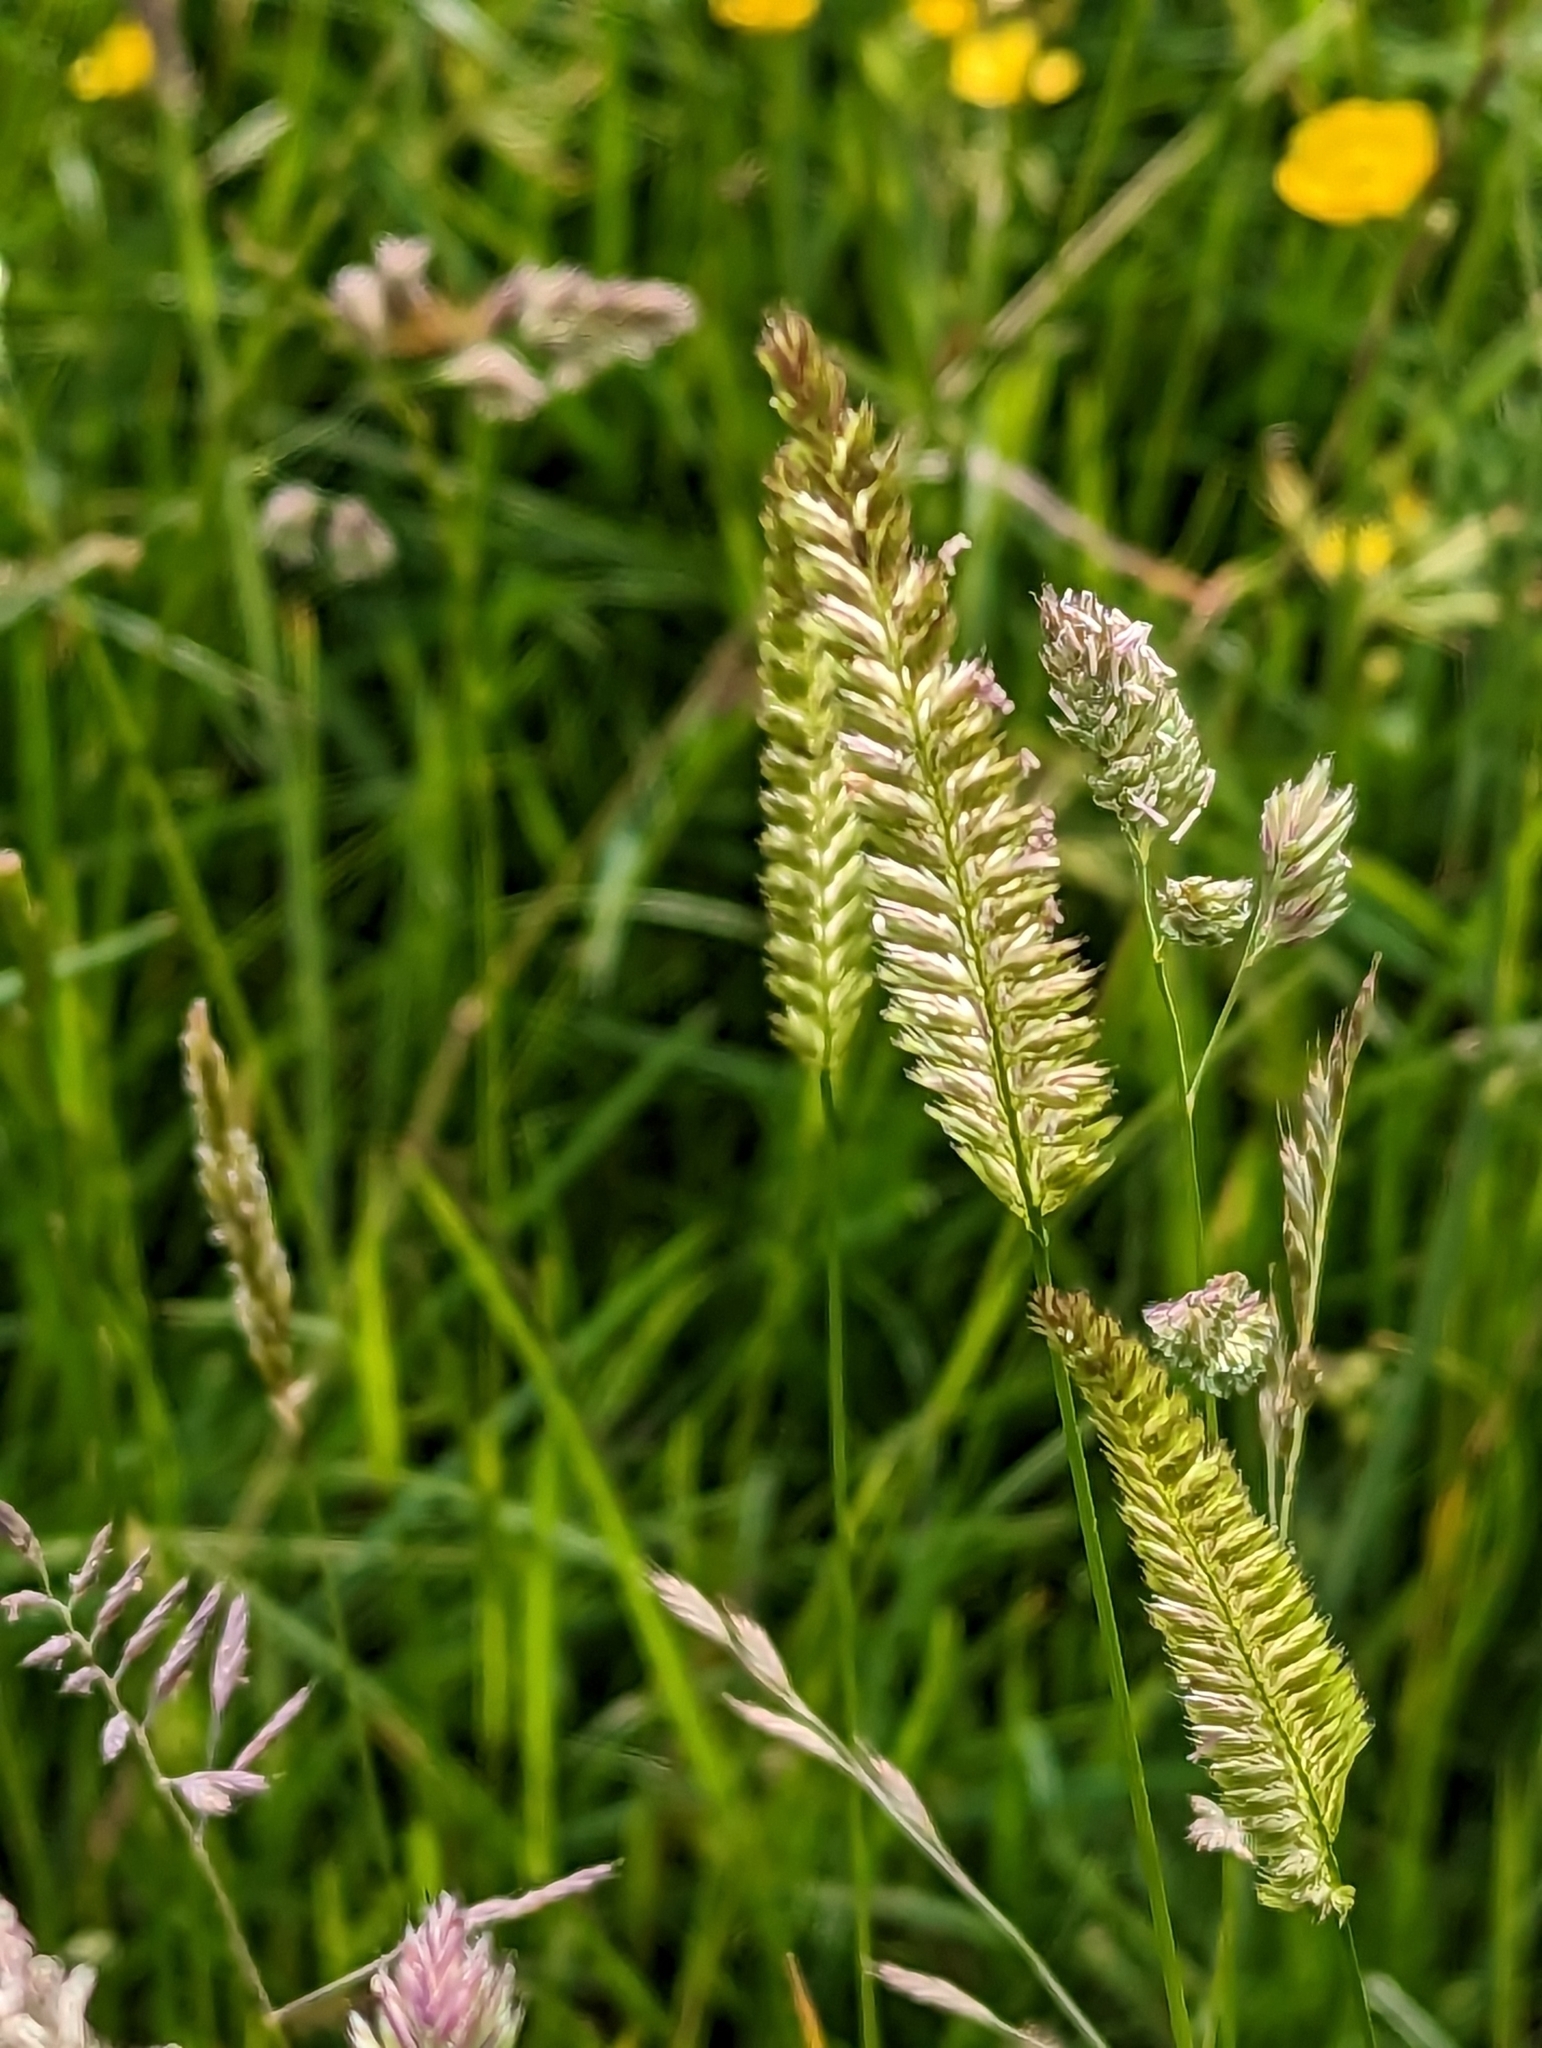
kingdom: Plantae
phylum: Tracheophyta
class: Liliopsida
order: Poales
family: Poaceae
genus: Cynosurus
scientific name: Cynosurus cristatus
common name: Crested dog's-tail
